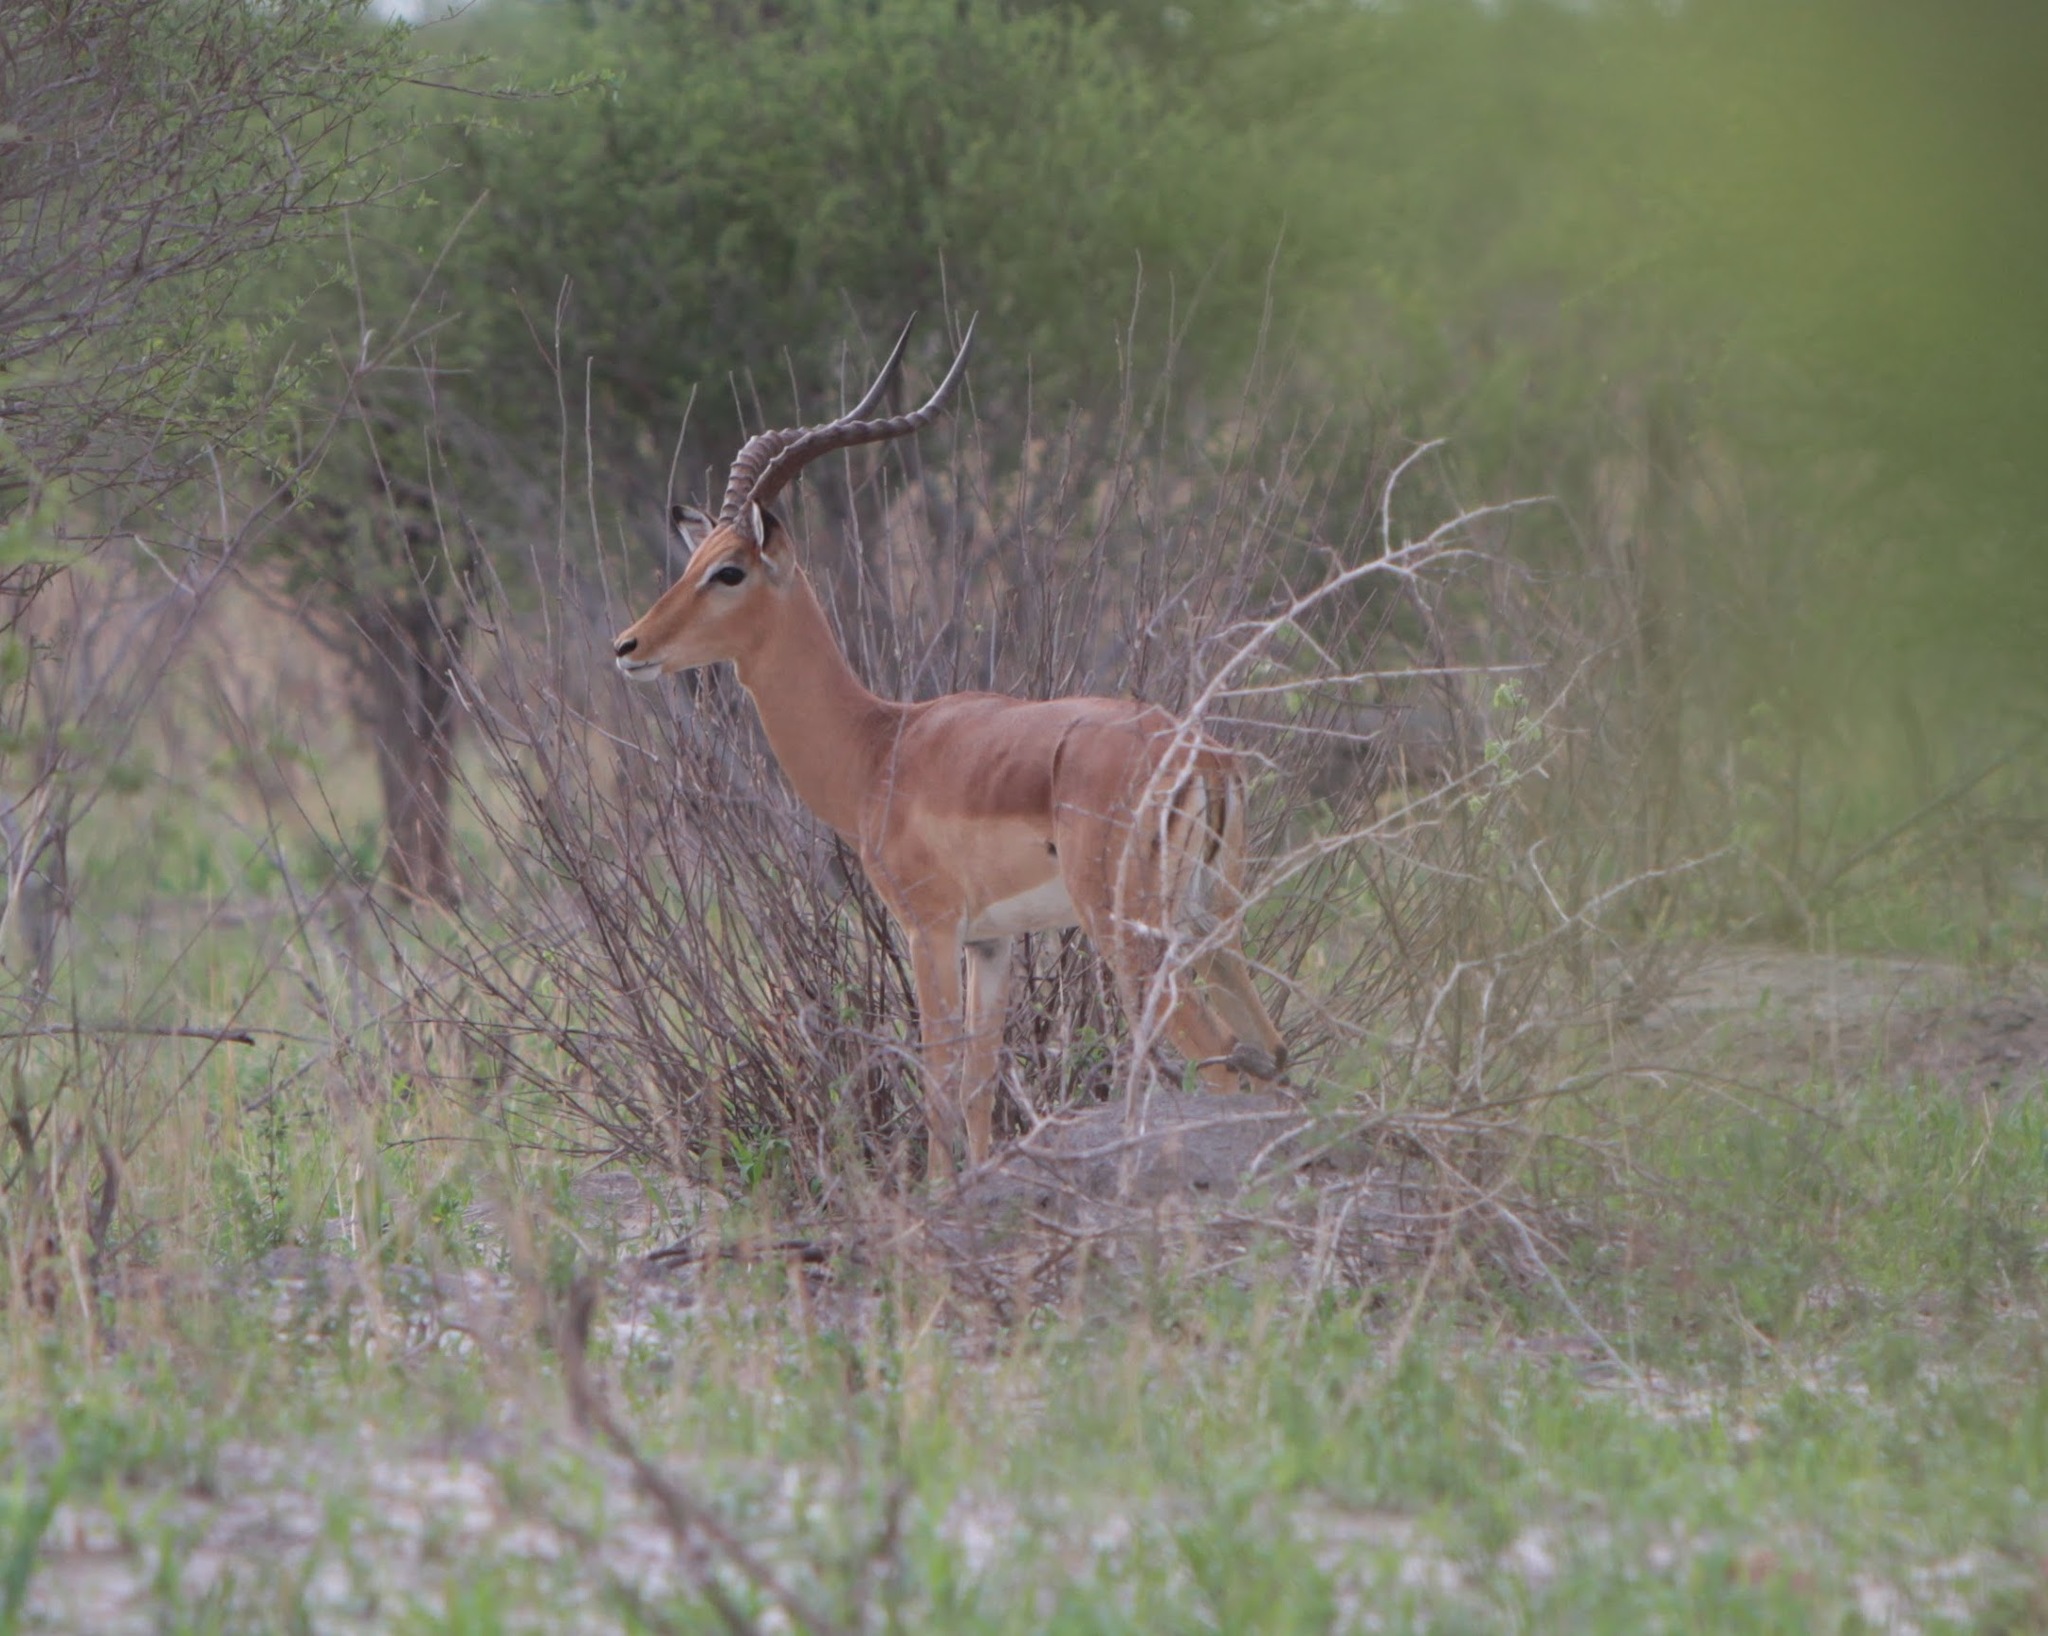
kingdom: Animalia
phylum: Chordata
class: Mammalia
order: Artiodactyla
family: Bovidae
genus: Aepyceros
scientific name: Aepyceros melampus
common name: Impala
